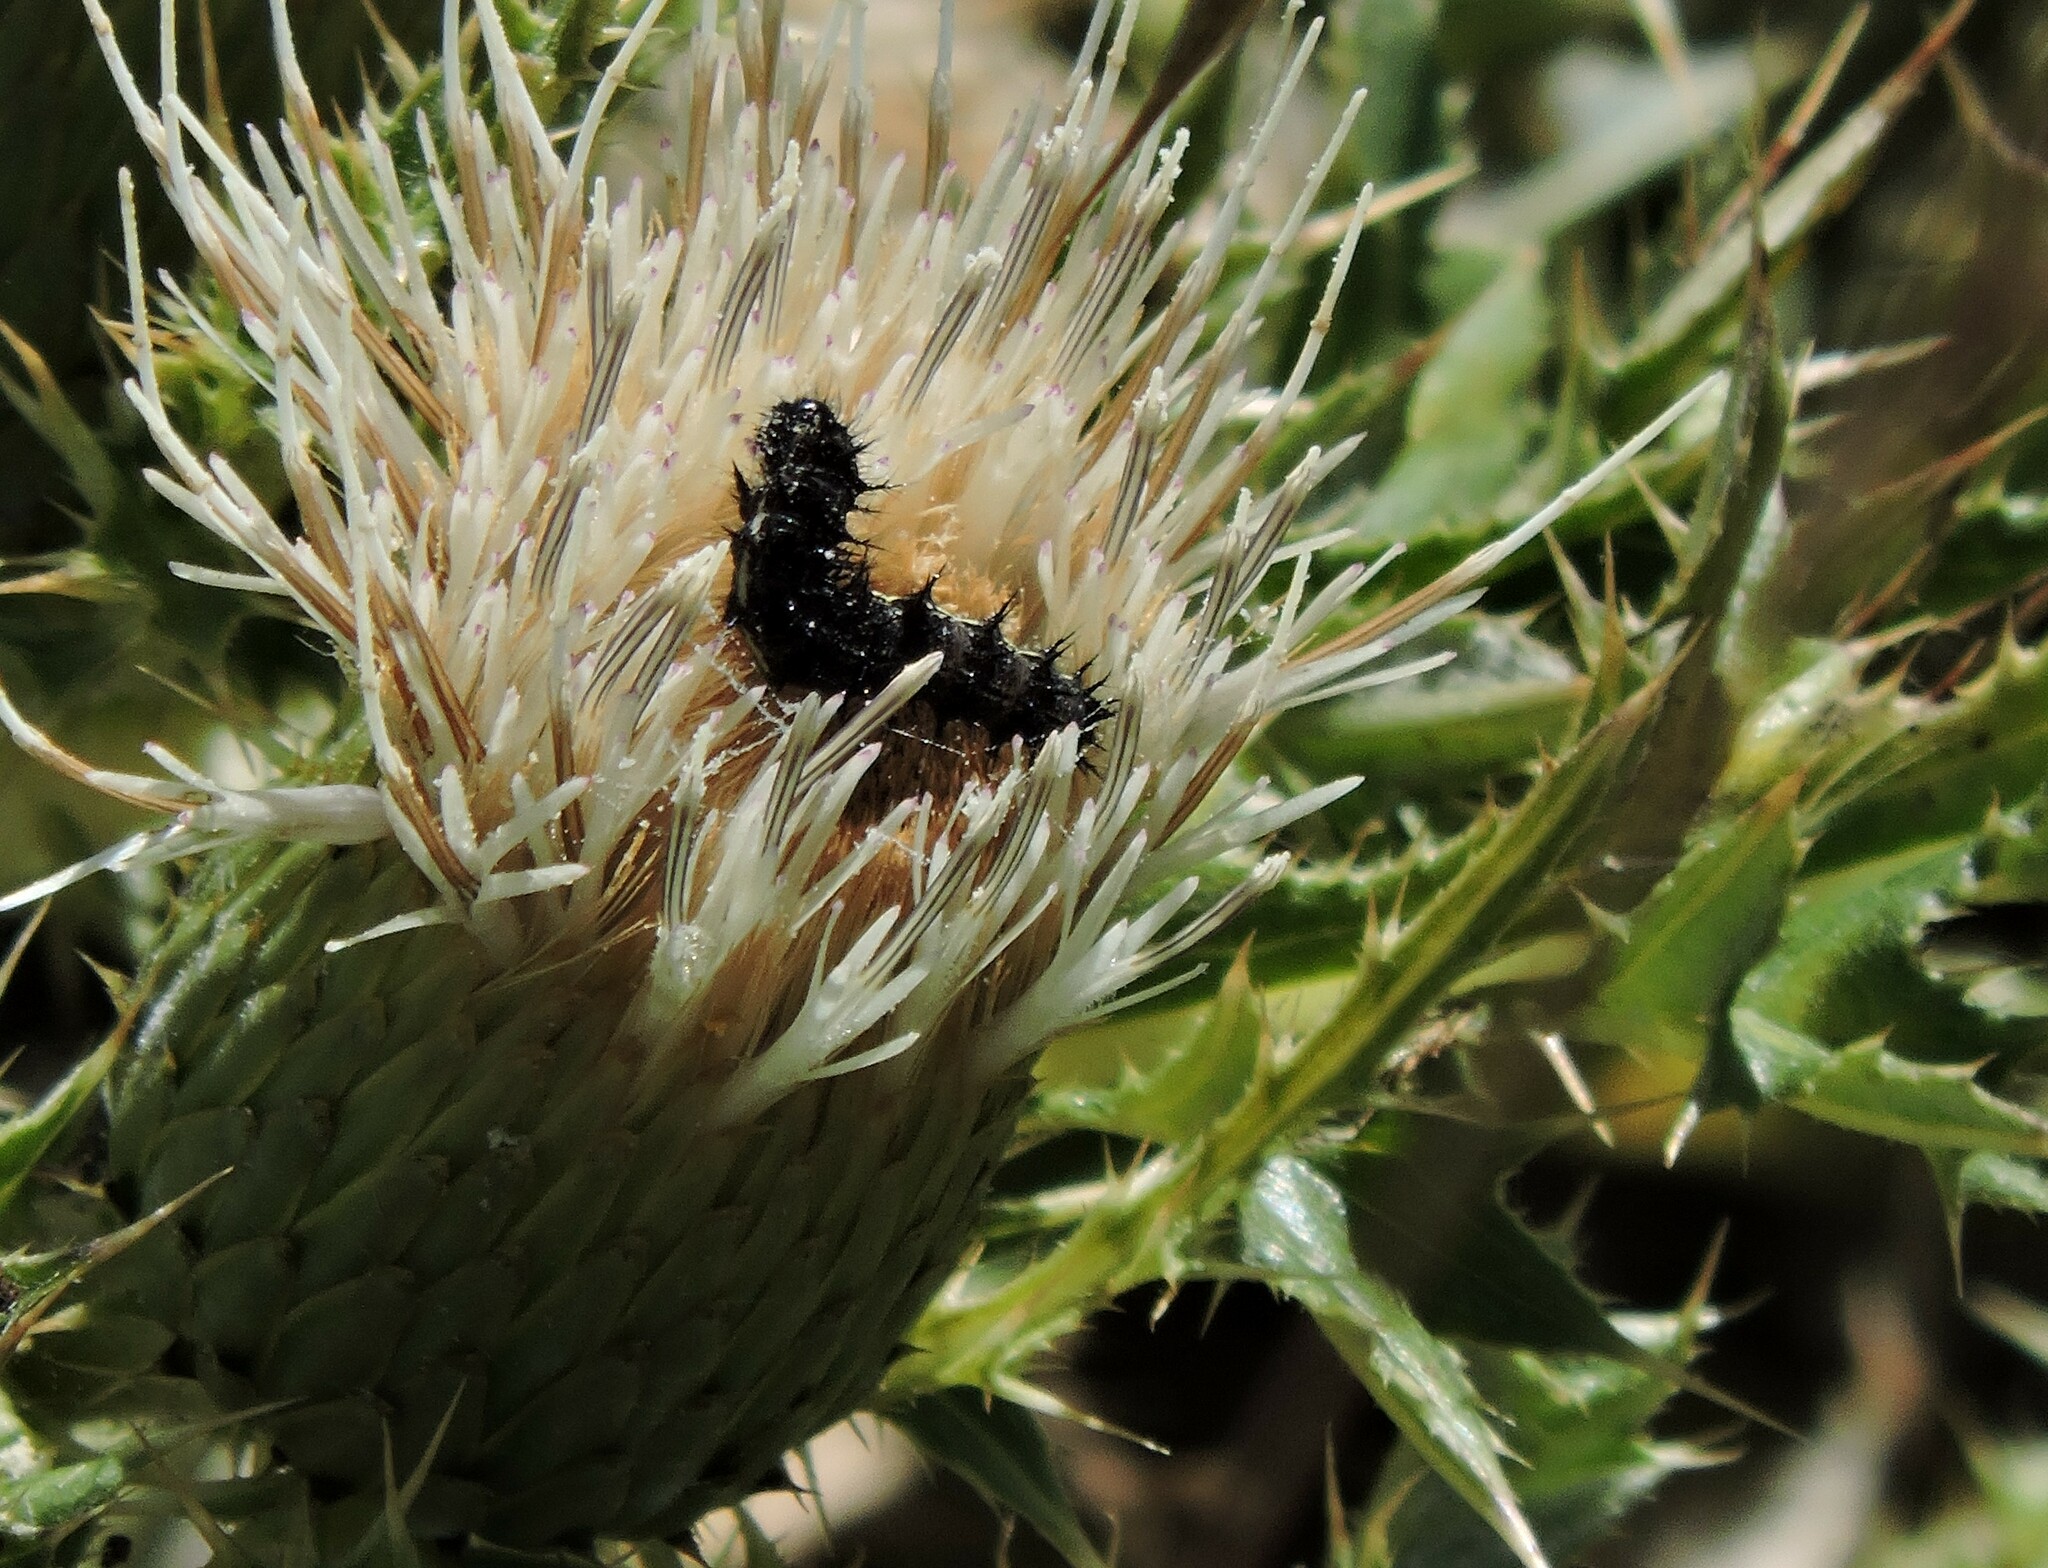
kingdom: Plantae
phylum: Tracheophyta
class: Magnoliopsida
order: Asterales
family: Asteraceae
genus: Cirsium
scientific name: Cirsium quercetorum
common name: Alameda county thistle
